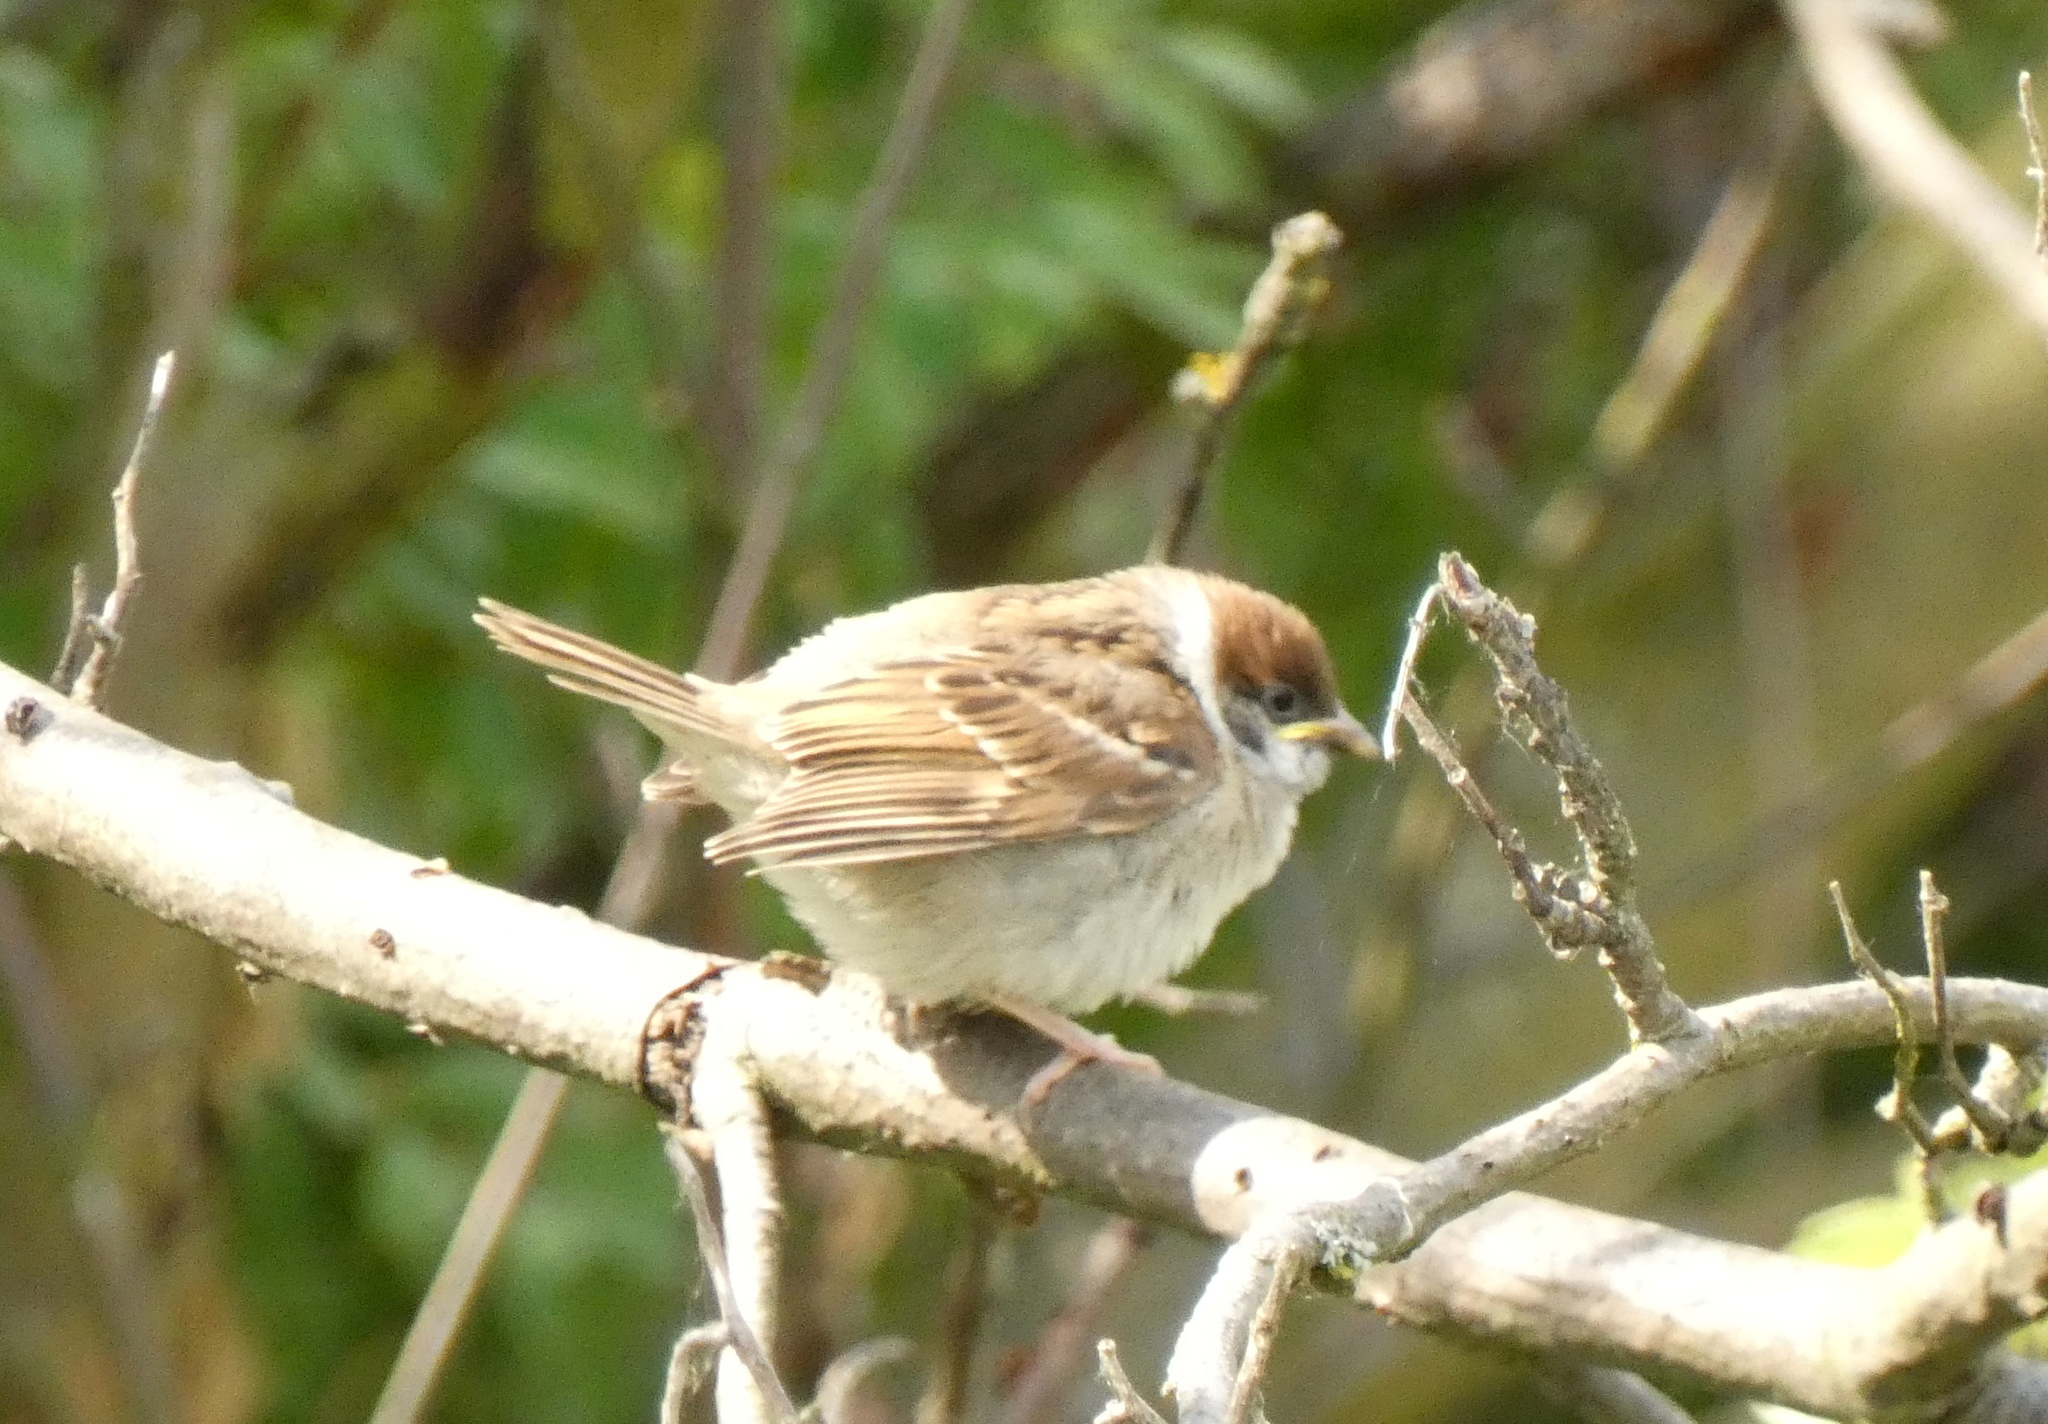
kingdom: Animalia
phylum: Chordata
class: Aves
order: Passeriformes
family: Passeridae
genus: Passer
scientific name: Passer montanus
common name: Eurasian tree sparrow
